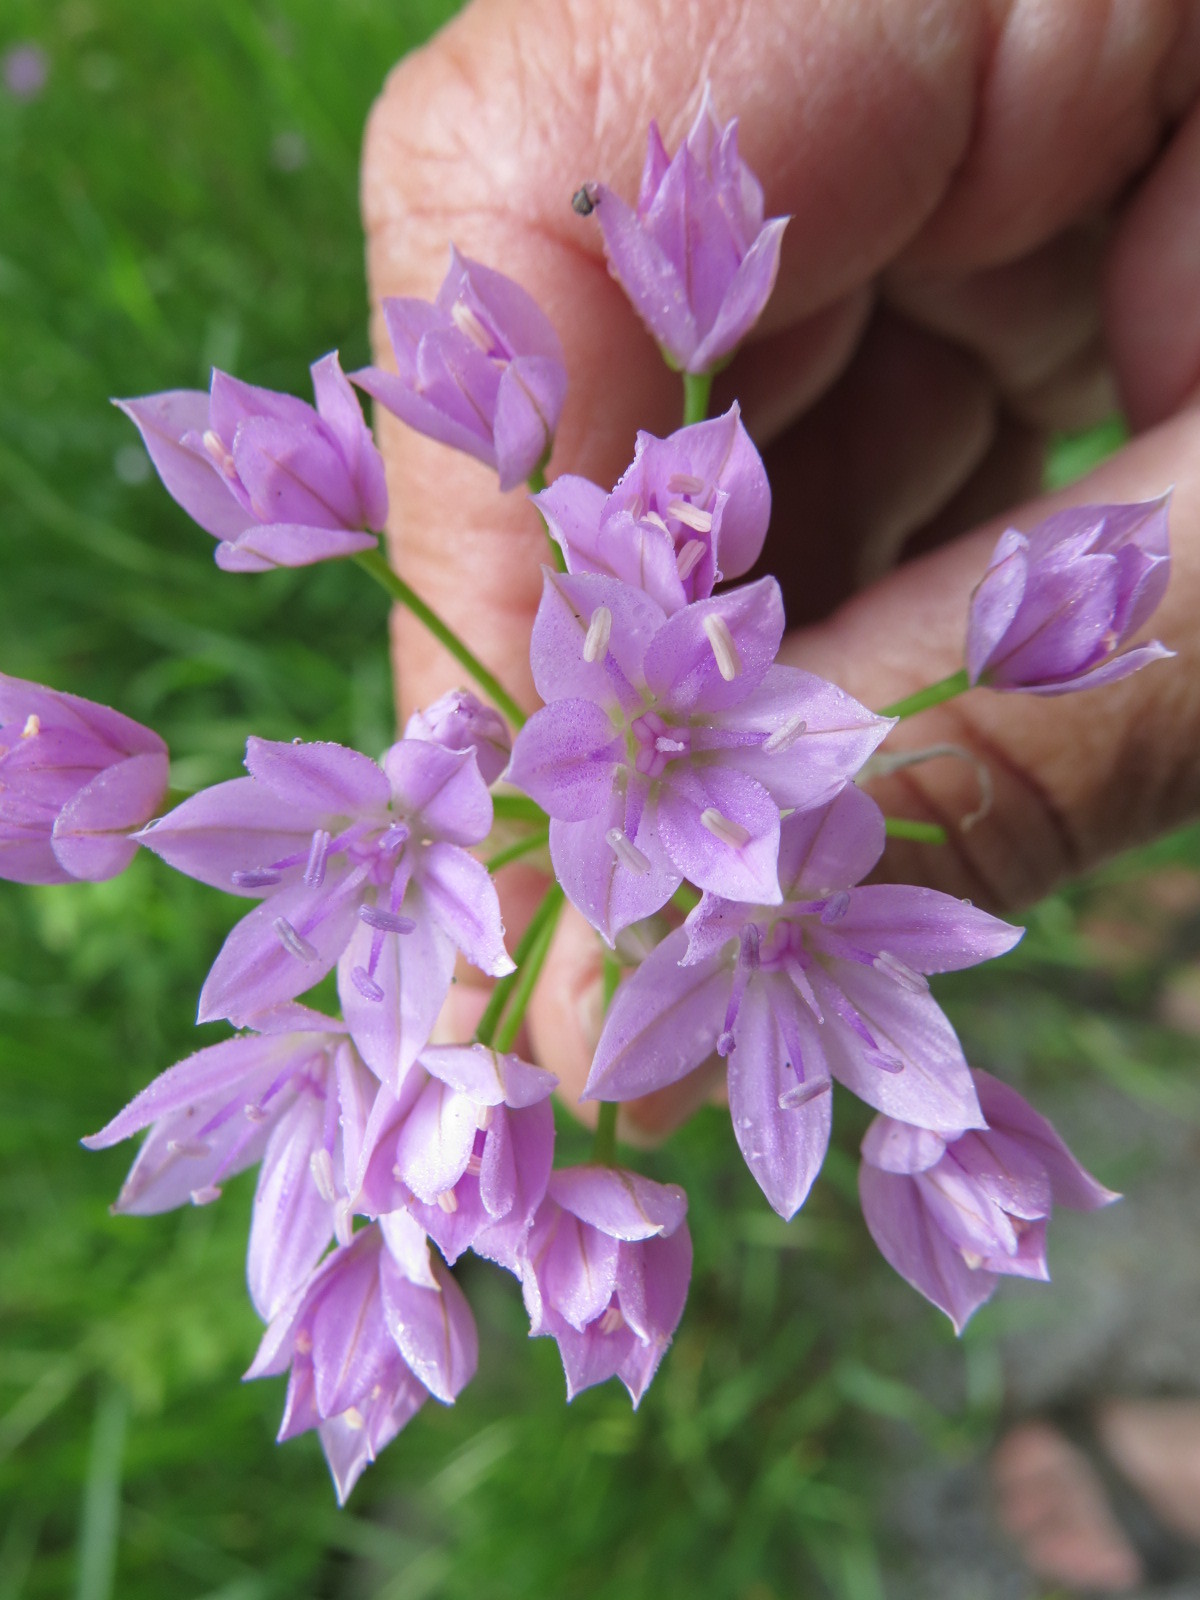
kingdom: Plantae
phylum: Tracheophyta
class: Liliopsida
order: Asparagales
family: Amaryllidaceae
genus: Allium
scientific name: Allium unifolium
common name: American garlic
